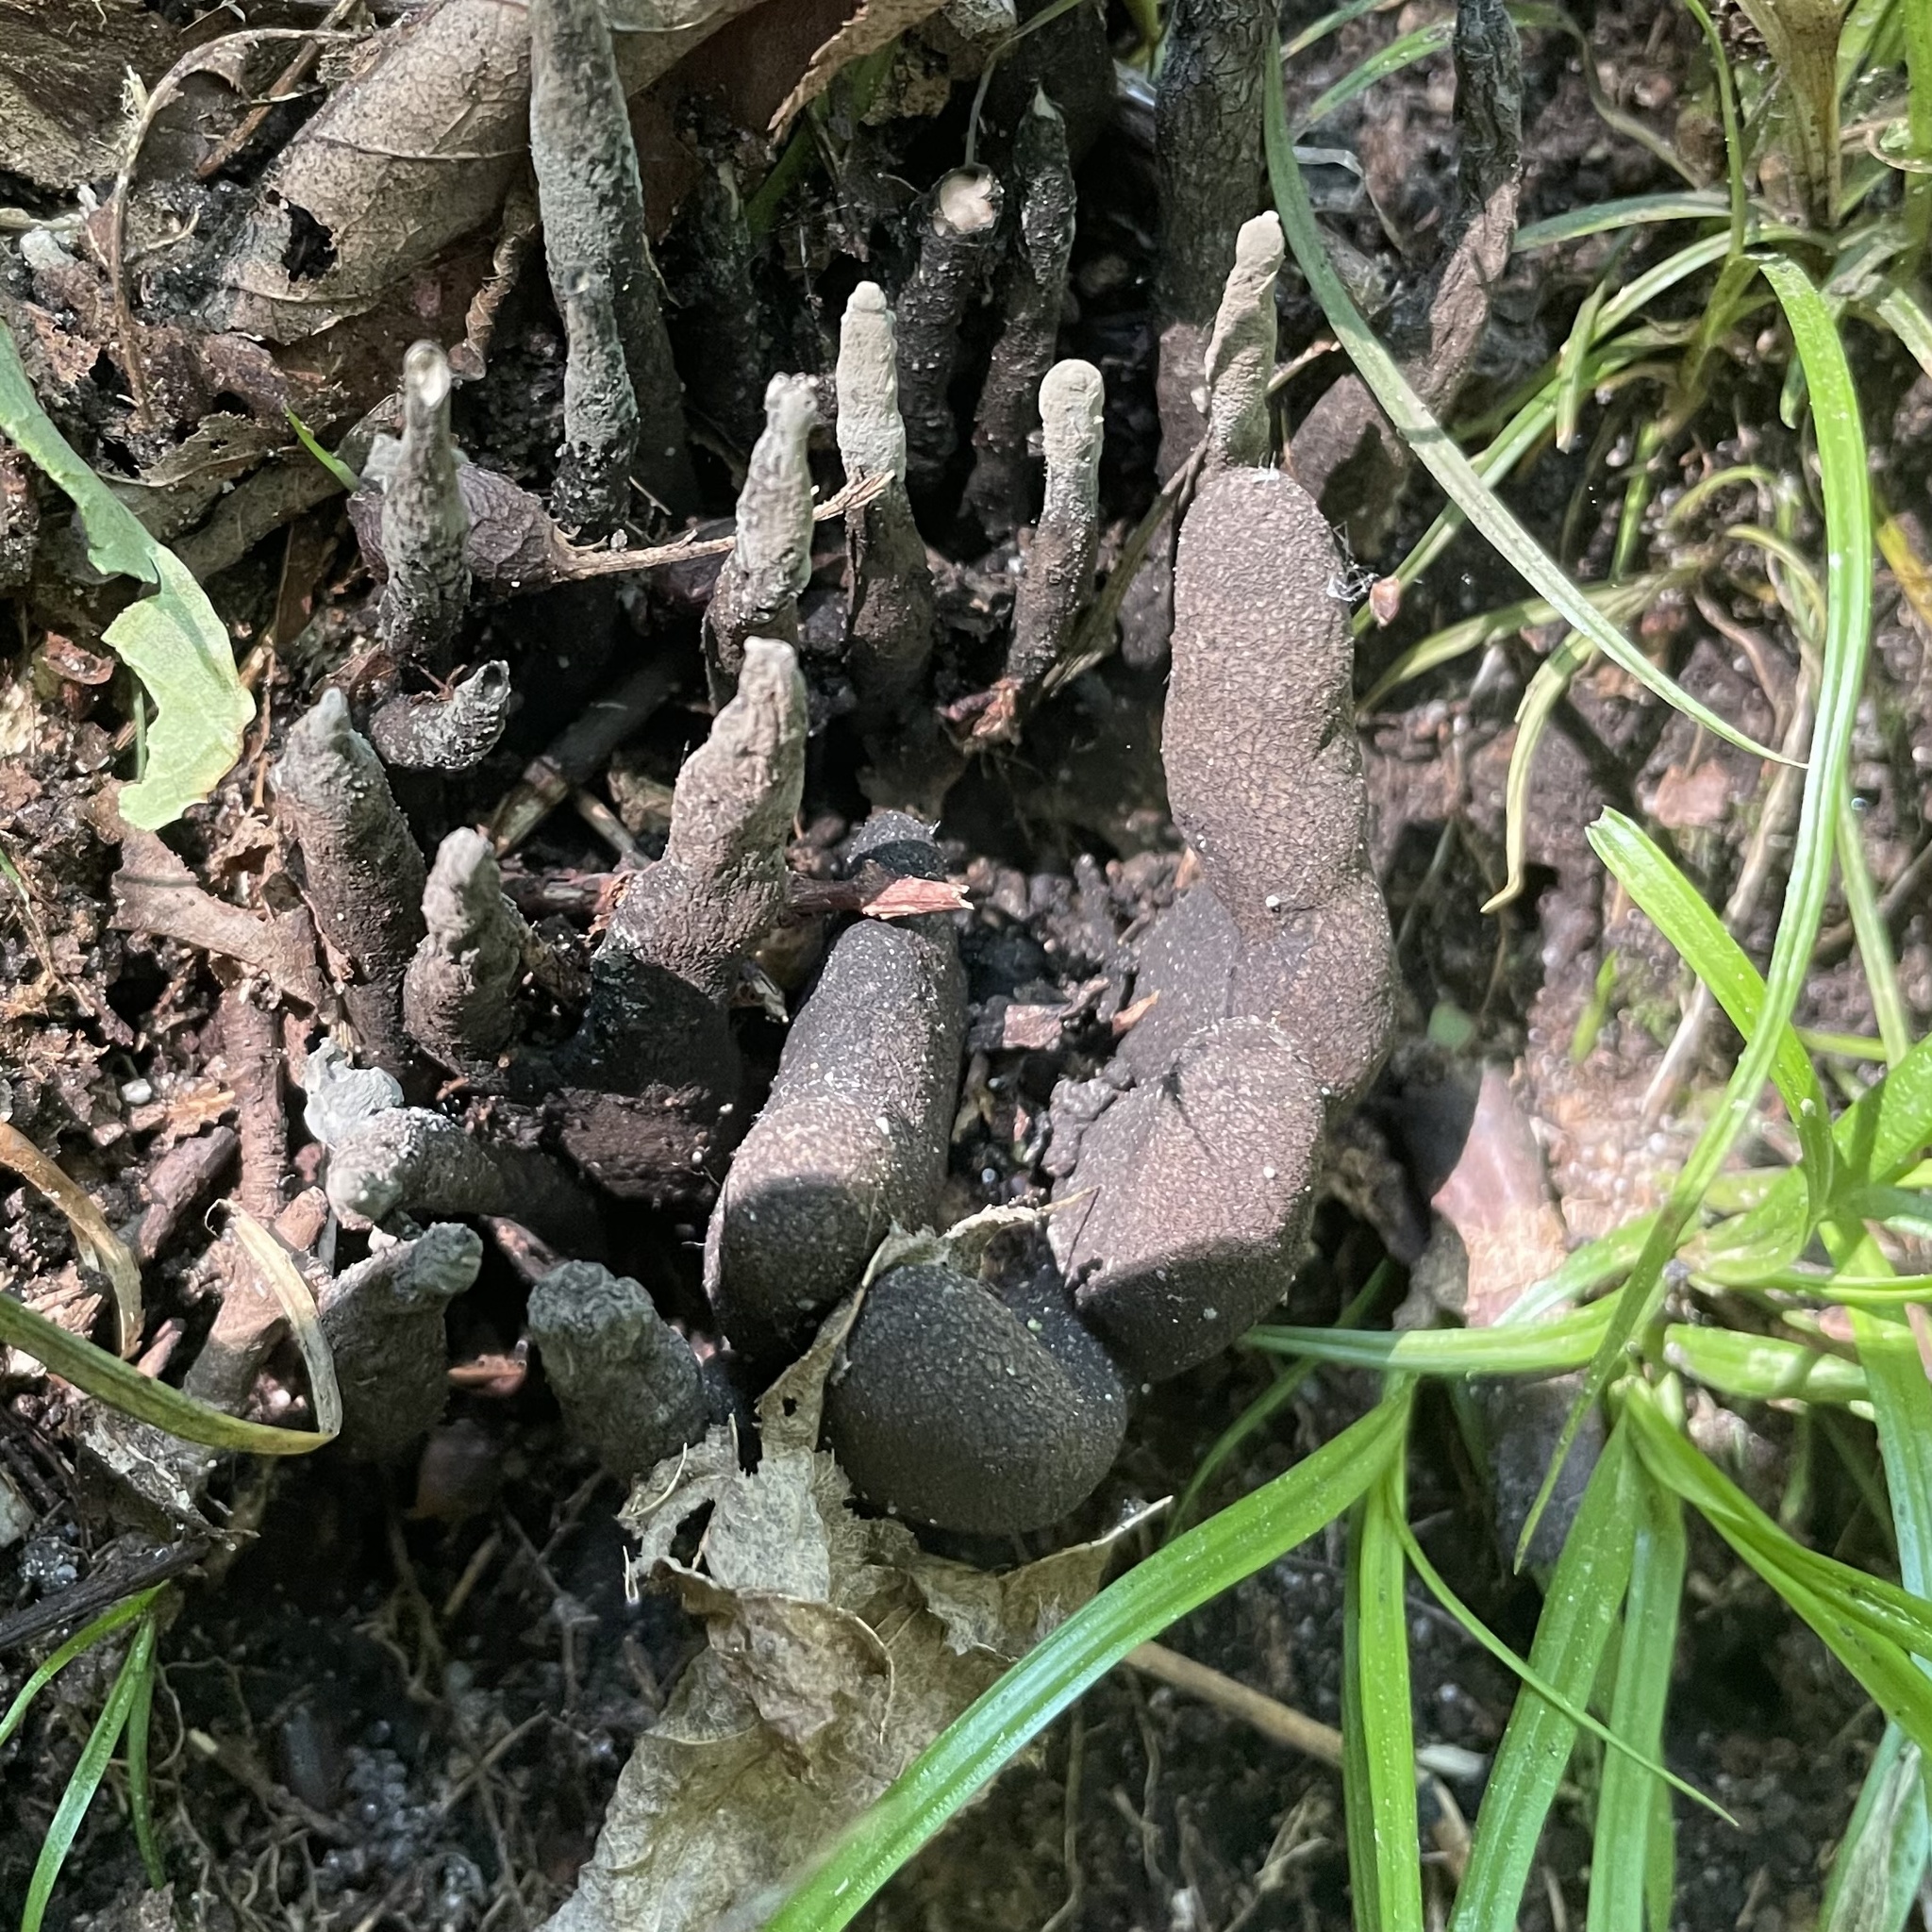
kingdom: Fungi
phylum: Ascomycota
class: Sordariomycetes
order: Xylariales
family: Xylariaceae
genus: Xylaria
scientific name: Xylaria polymorpha
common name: Dead man's fingers
